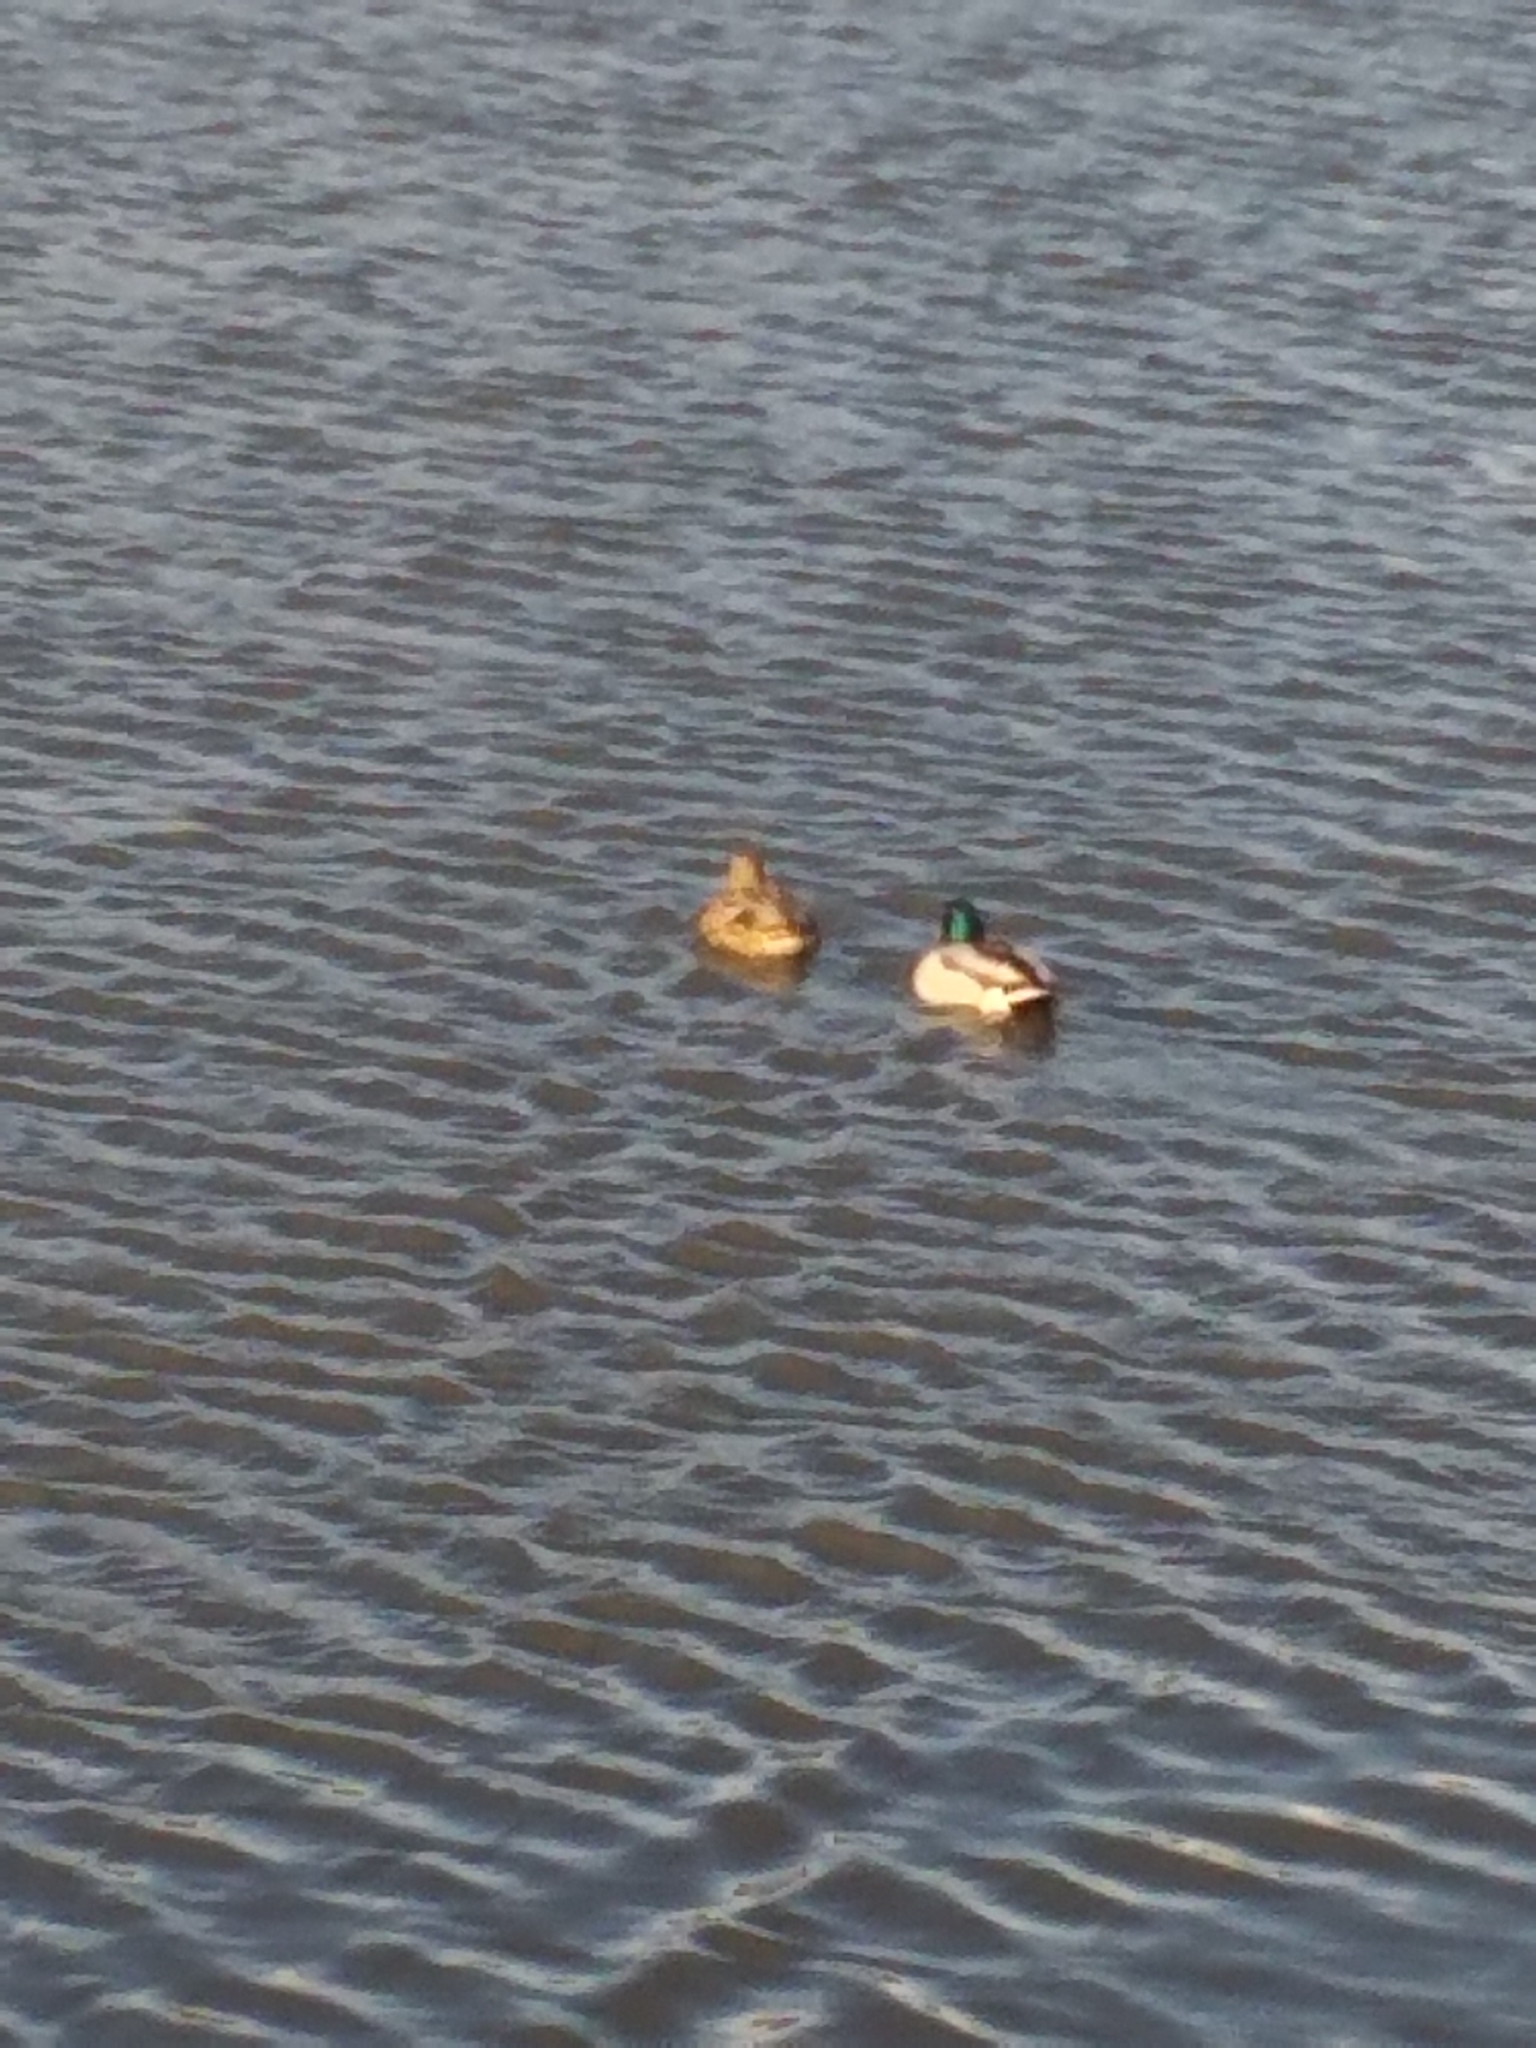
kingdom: Animalia
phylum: Chordata
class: Aves
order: Anseriformes
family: Anatidae
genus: Anas
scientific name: Anas platyrhynchos
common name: Mallard
